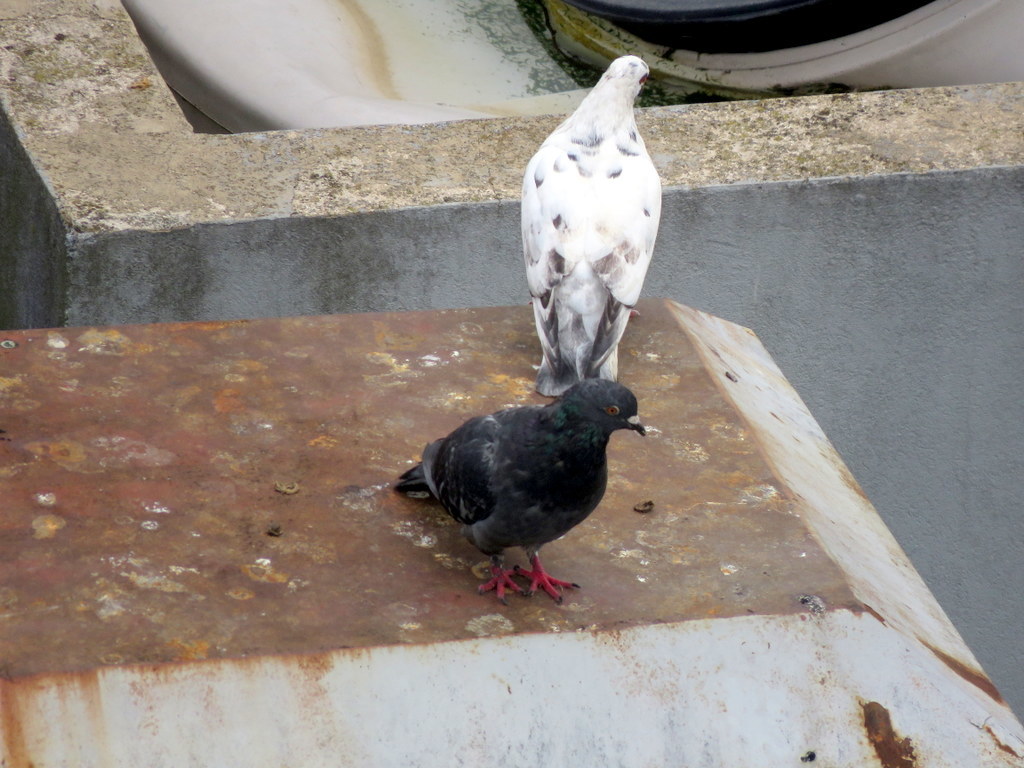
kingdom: Animalia
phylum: Chordata
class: Aves
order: Columbiformes
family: Columbidae
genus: Columba
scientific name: Columba livia
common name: Rock pigeon
